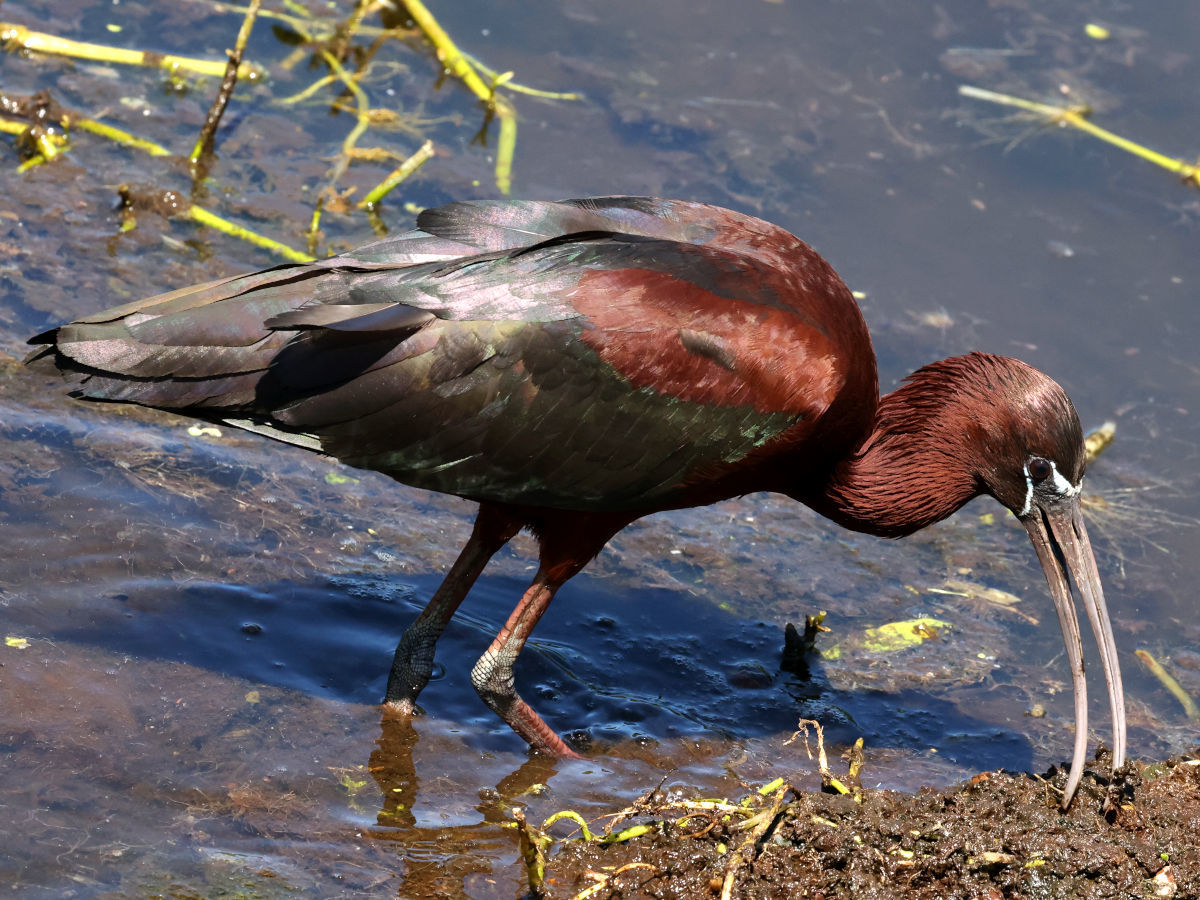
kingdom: Animalia
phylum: Chordata
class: Aves
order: Pelecaniformes
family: Threskiornithidae
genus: Plegadis
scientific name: Plegadis falcinellus
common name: Glossy ibis
